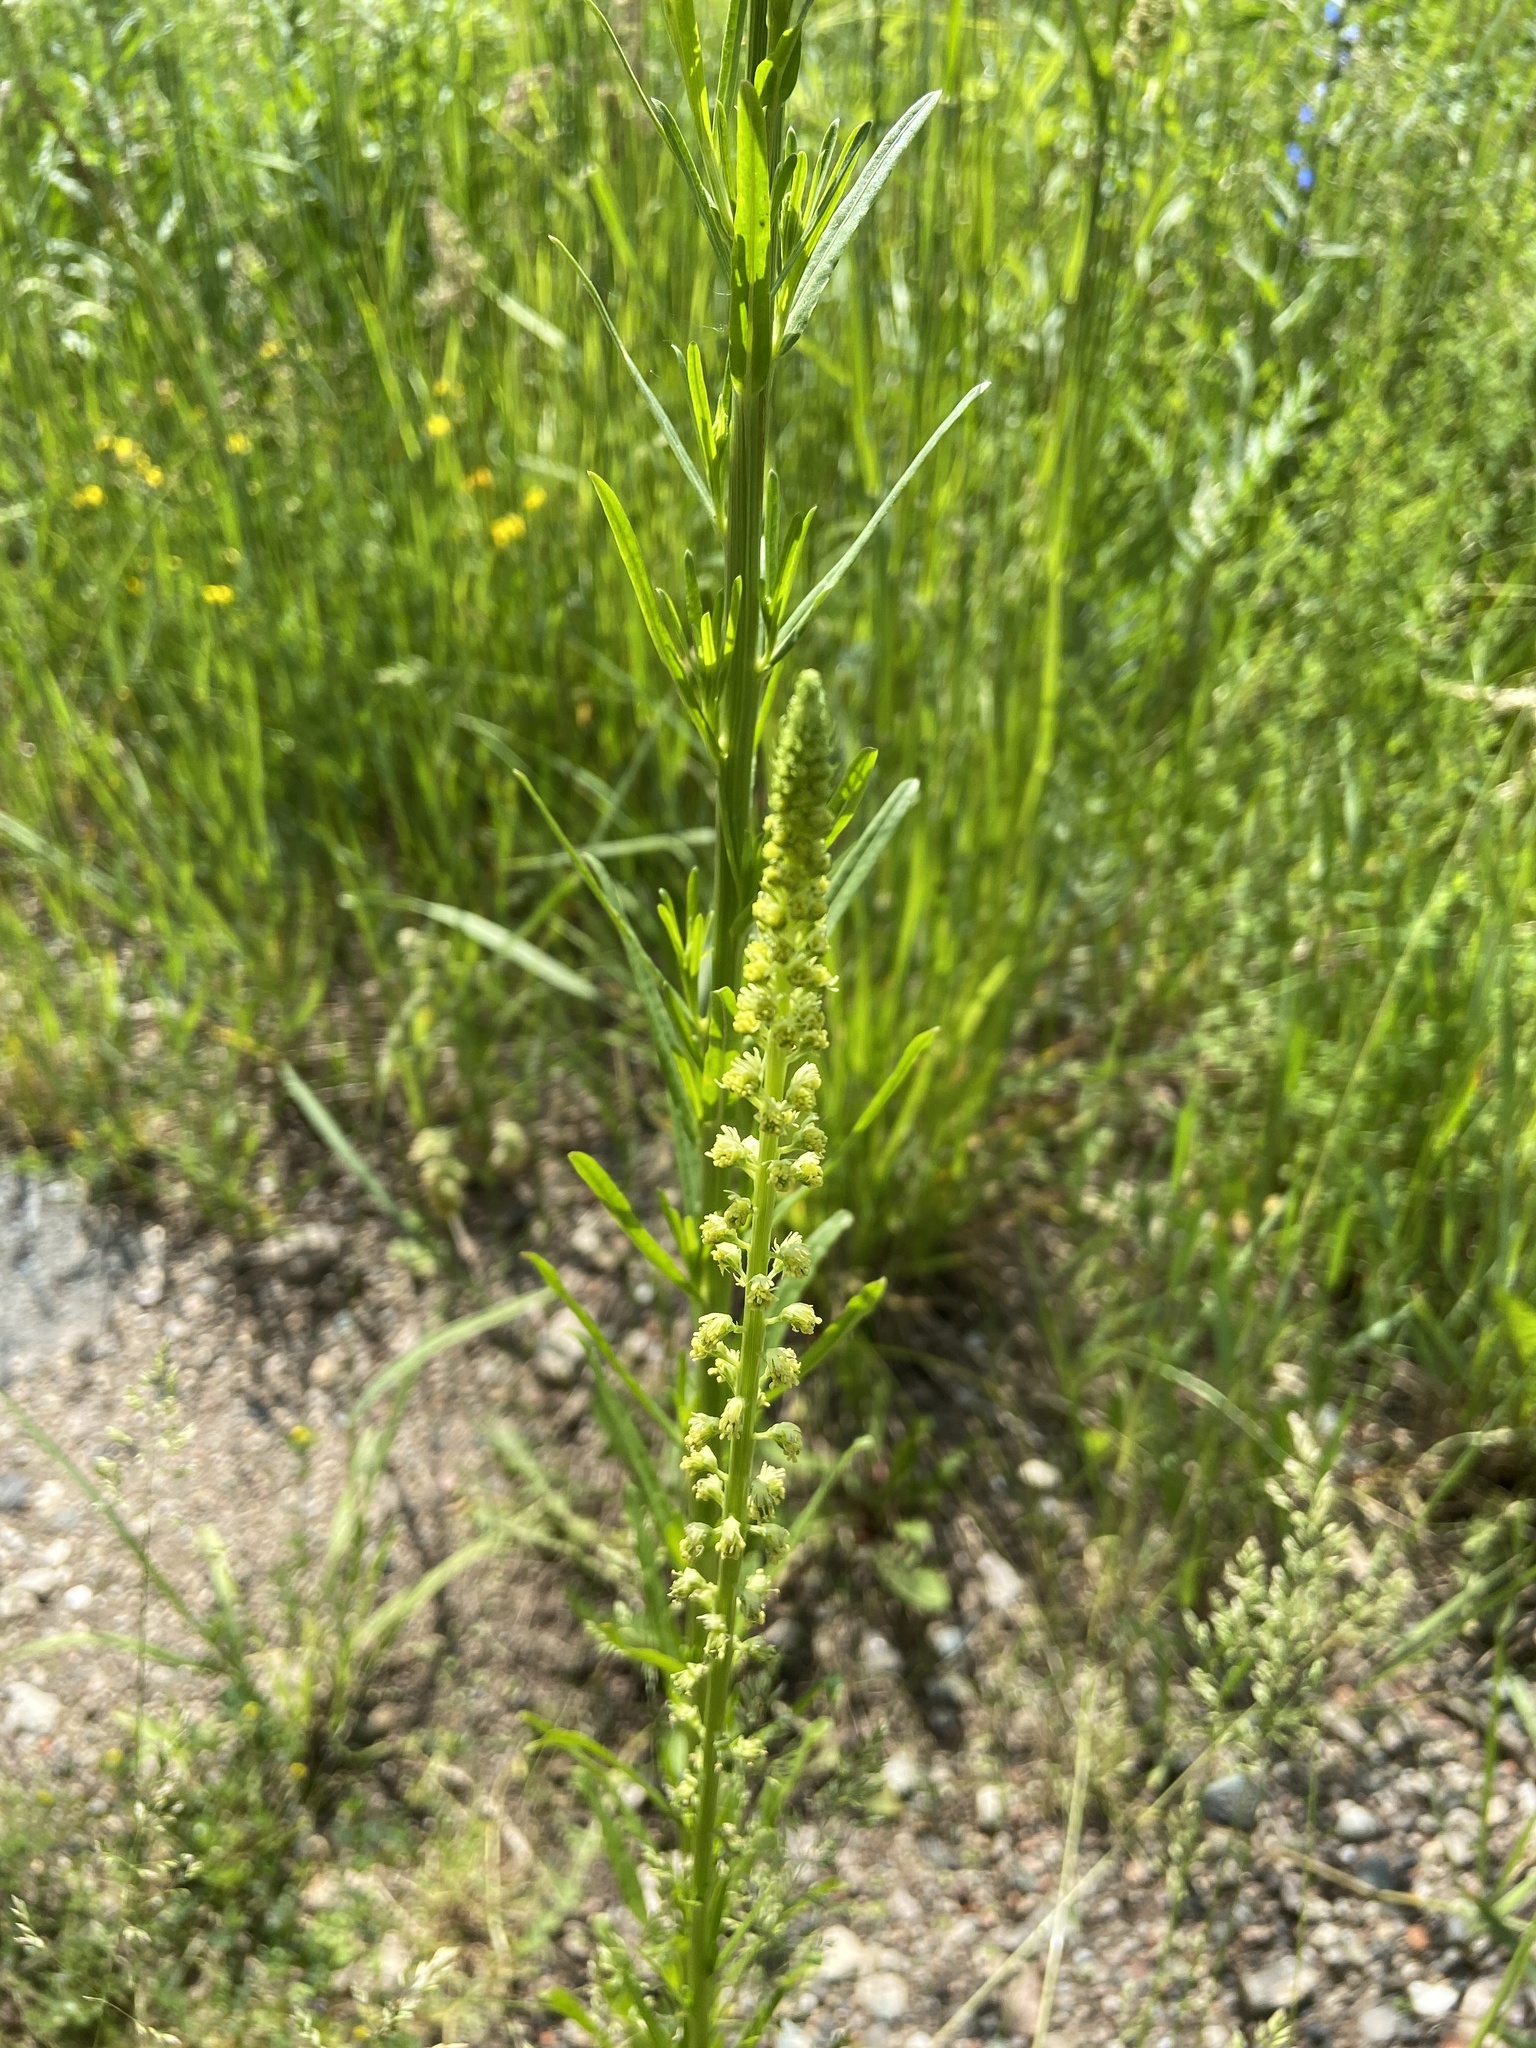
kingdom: Plantae
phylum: Tracheophyta
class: Magnoliopsida
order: Brassicales
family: Resedaceae
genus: Reseda
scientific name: Reseda luteola
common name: Weld
